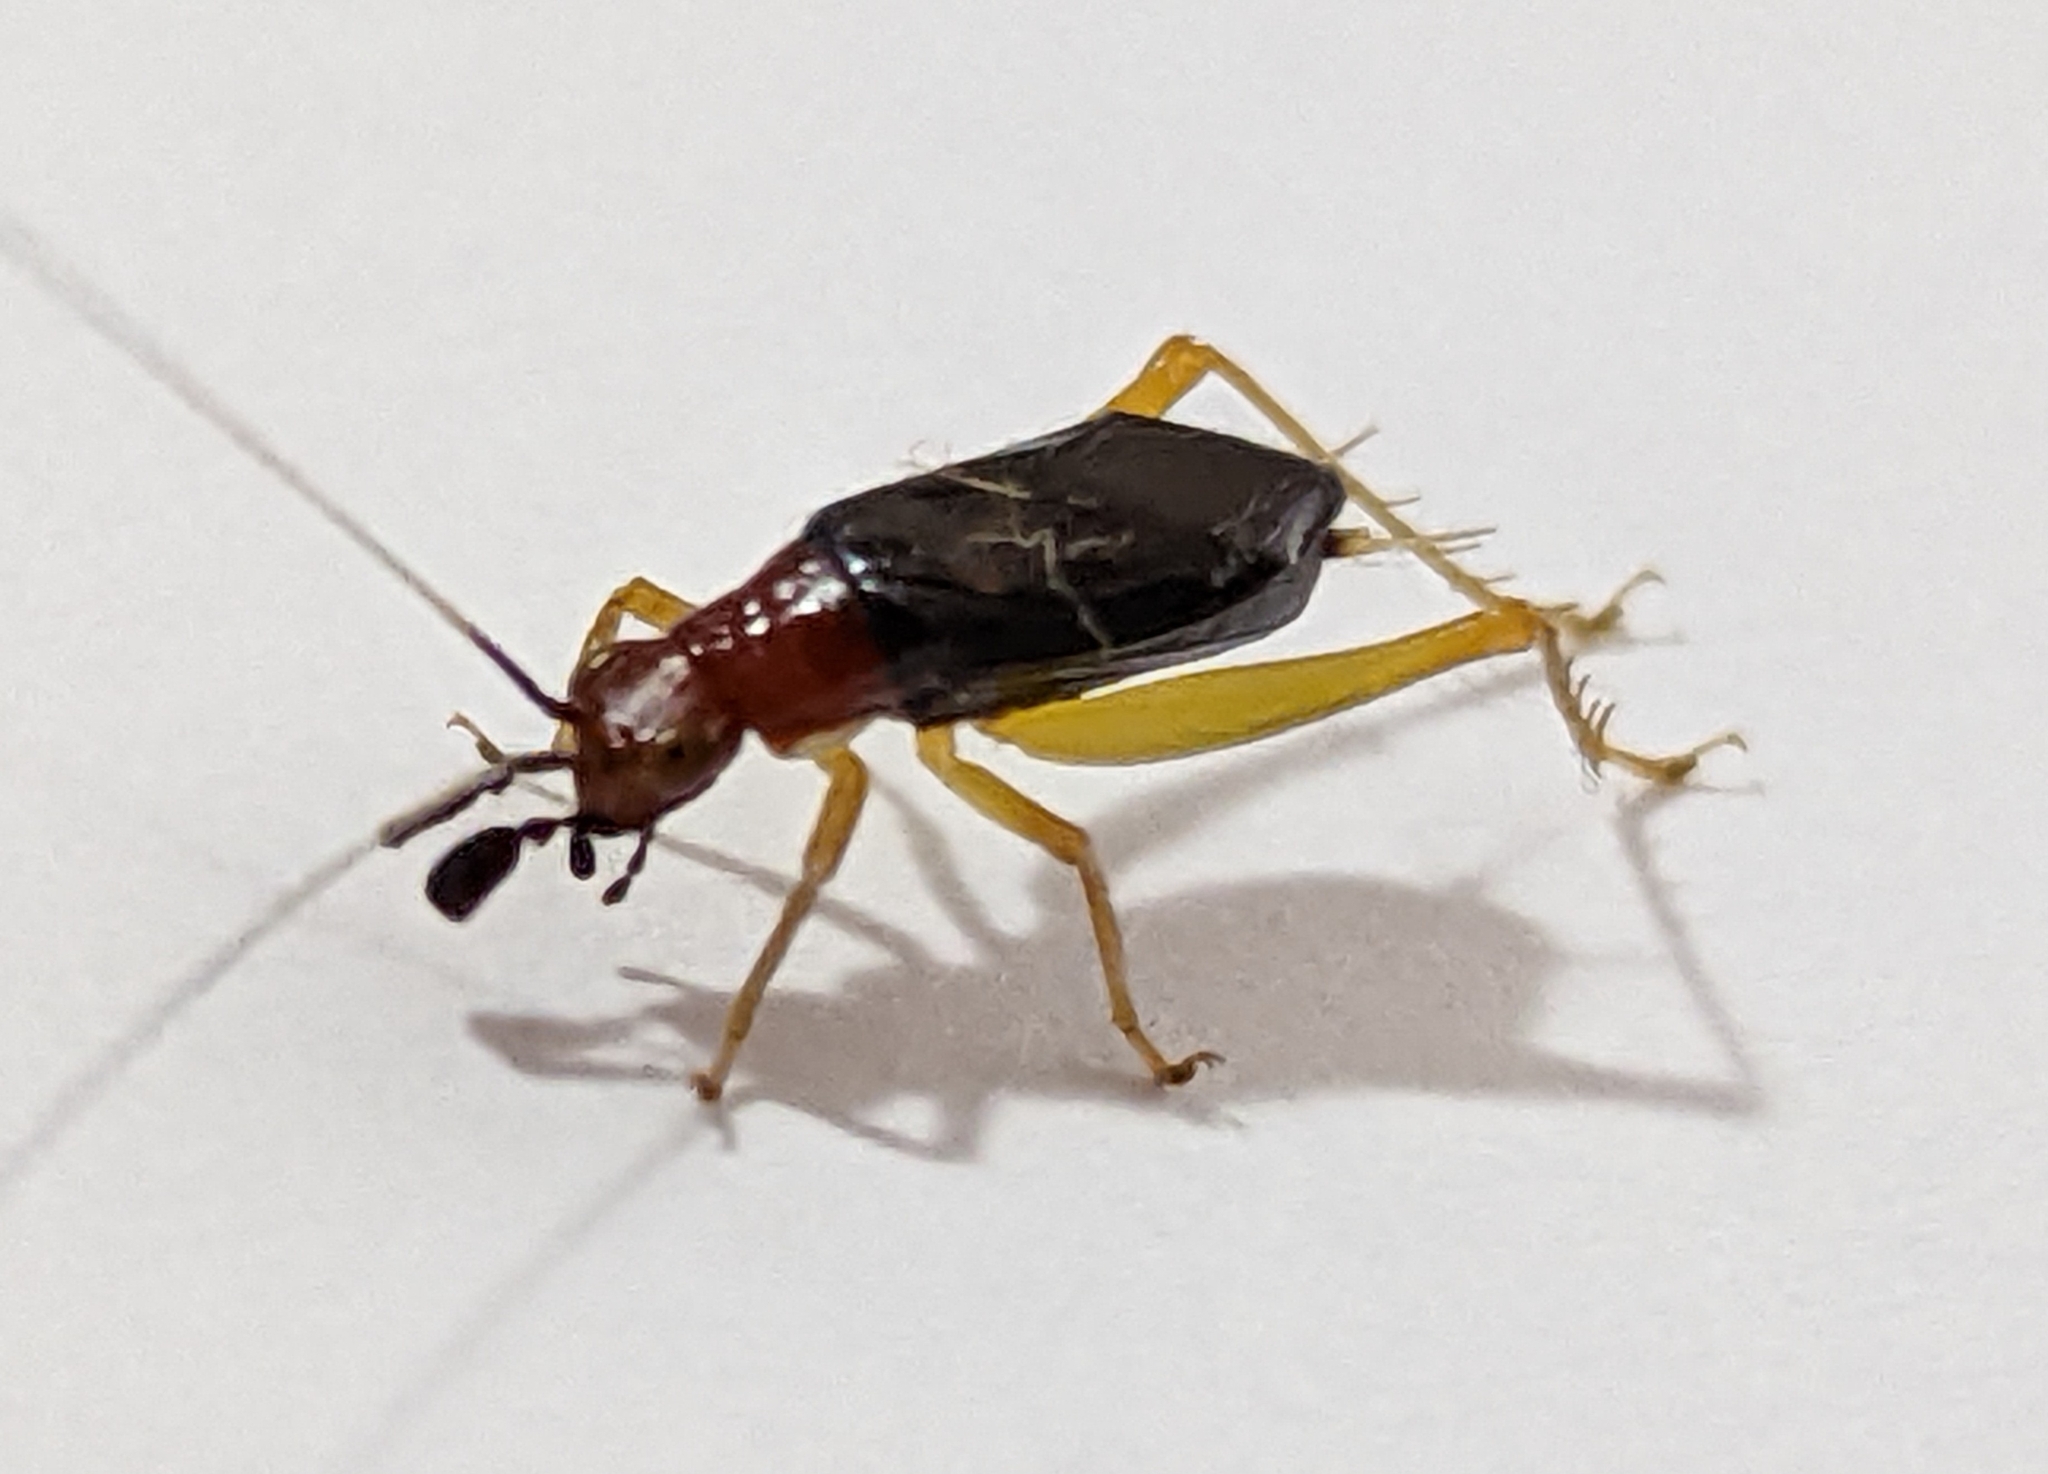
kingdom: Animalia
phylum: Arthropoda
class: Insecta
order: Orthoptera
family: Trigonidiidae
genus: Phyllopalpus
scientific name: Phyllopalpus pulchellus
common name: Handsome trig
